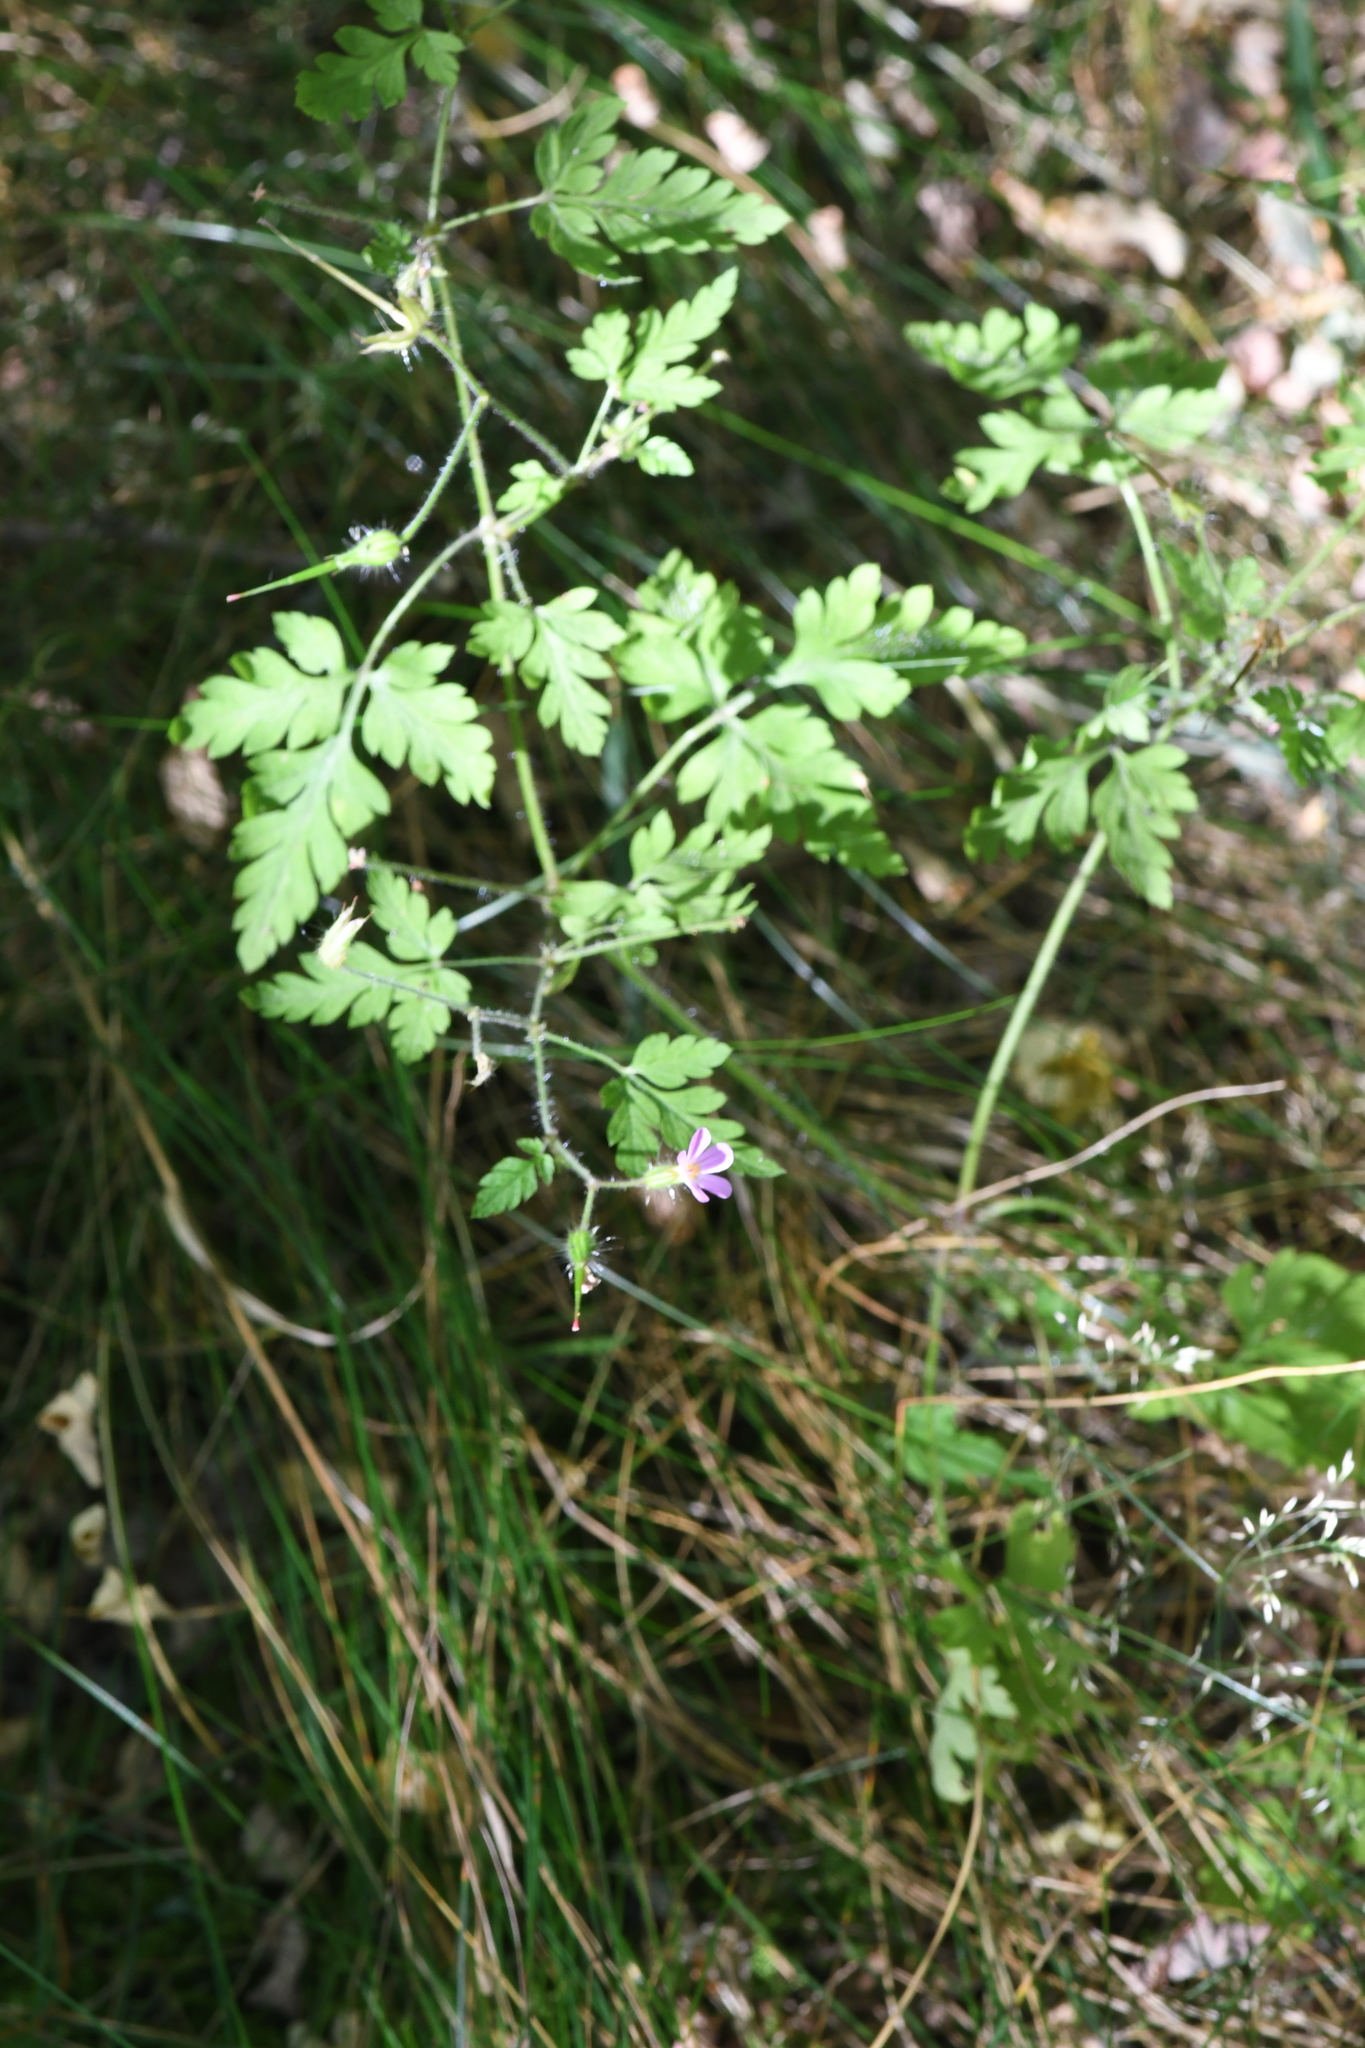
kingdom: Plantae
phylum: Tracheophyta
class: Magnoliopsida
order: Geraniales
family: Geraniaceae
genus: Geranium
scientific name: Geranium robertianum
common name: Herb-robert
